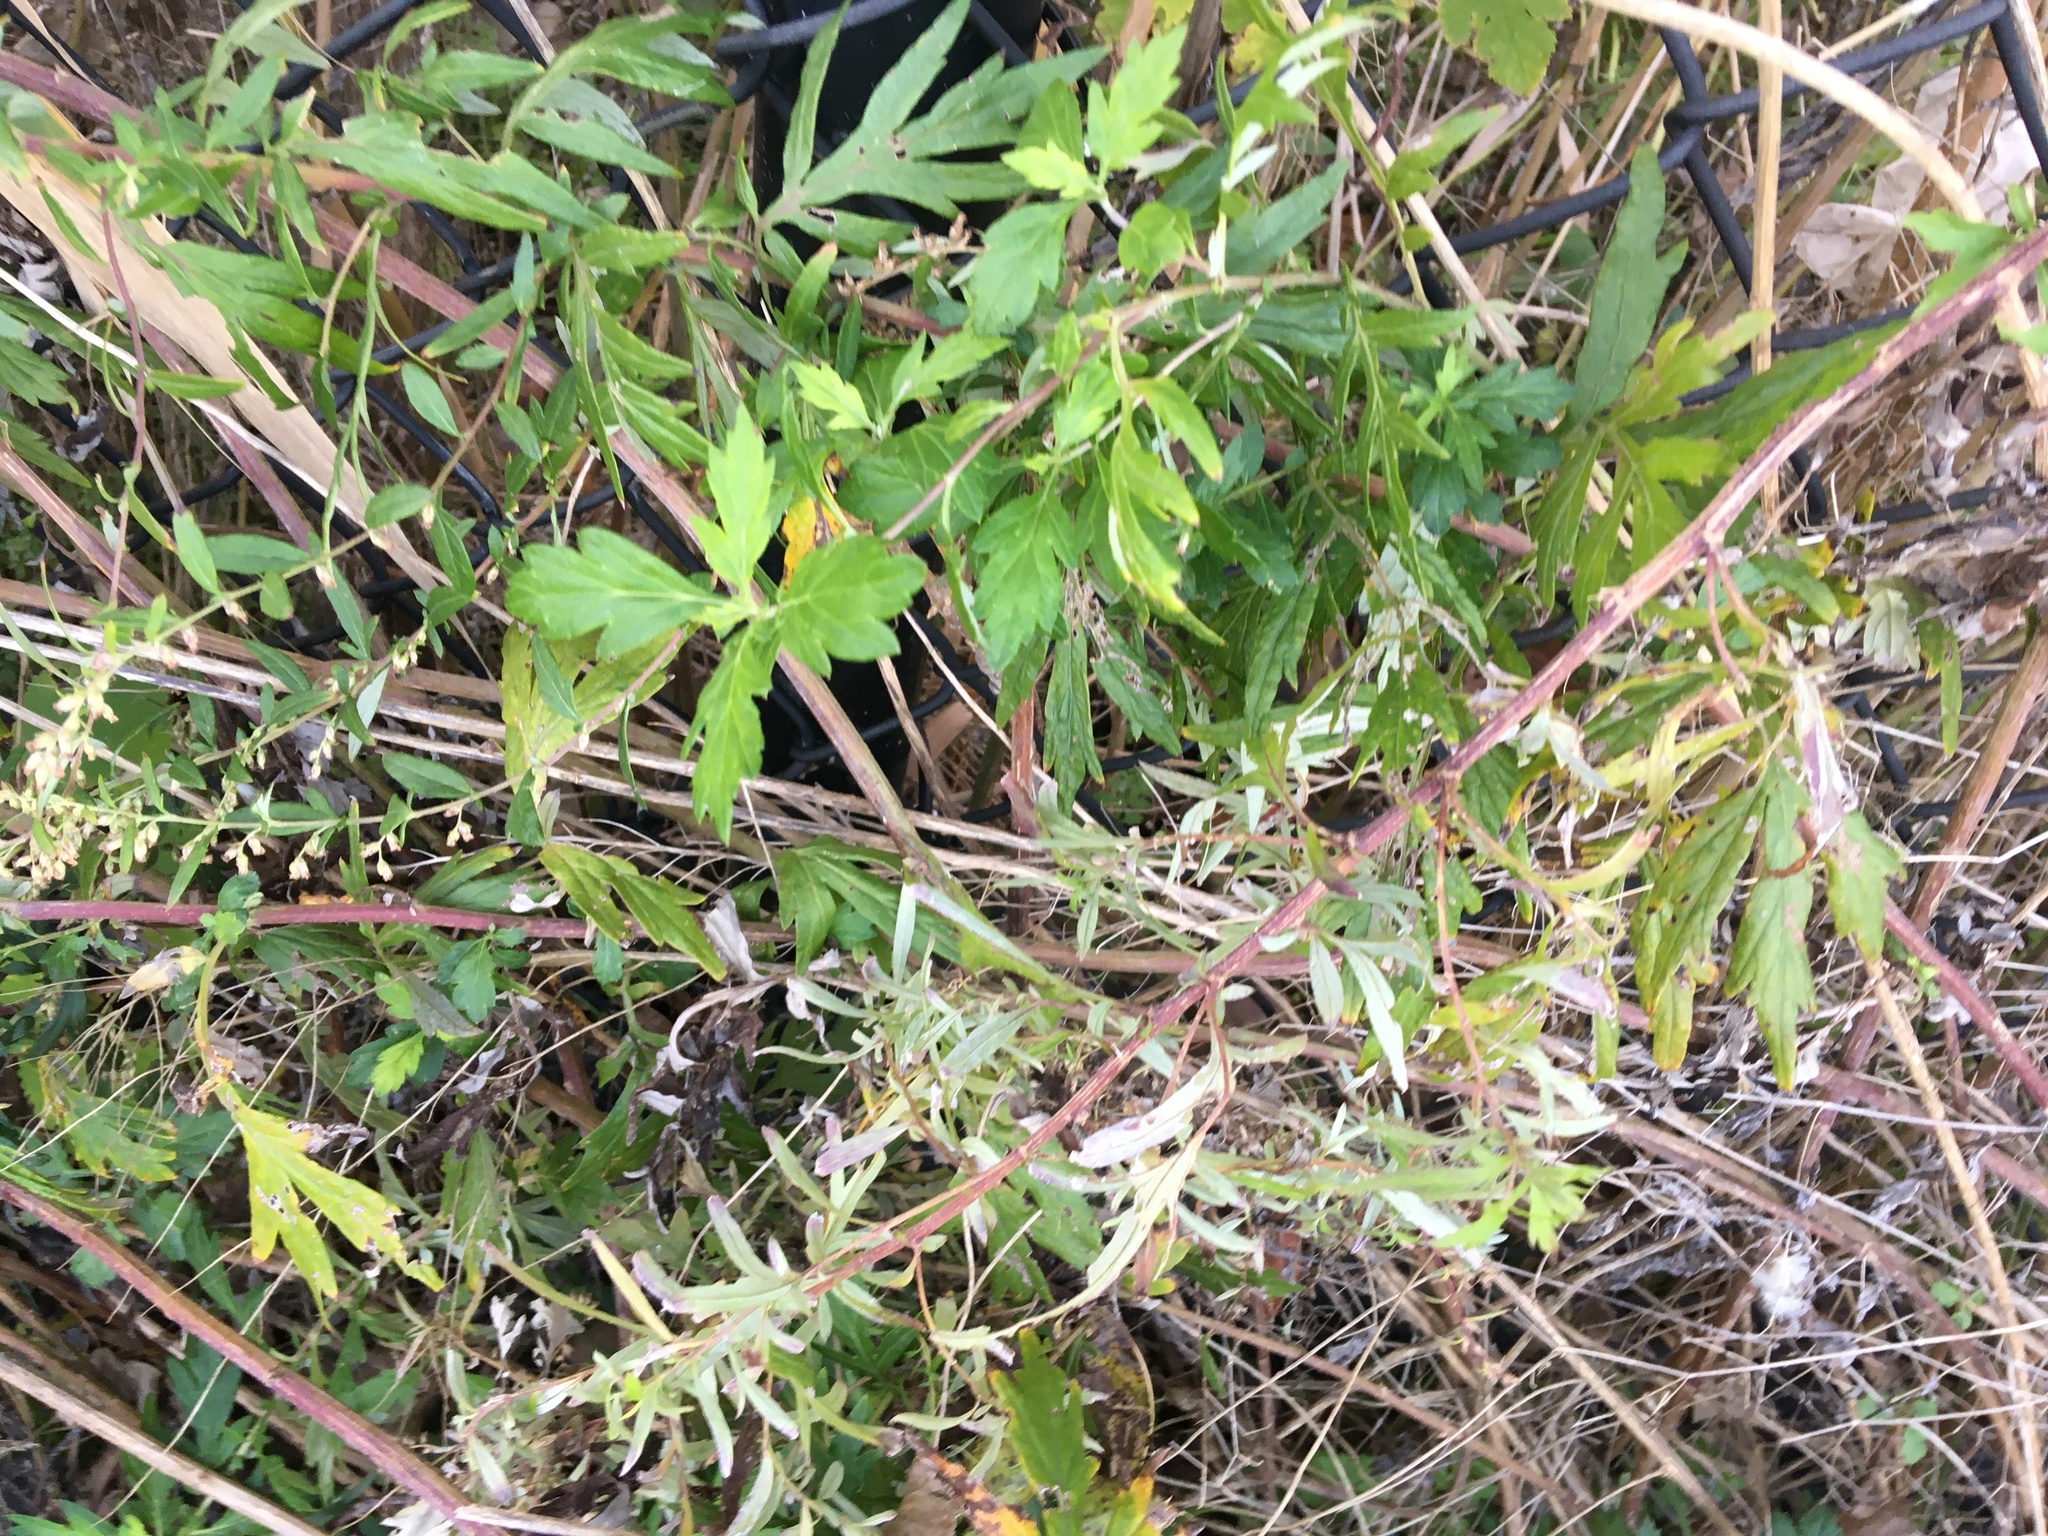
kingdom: Plantae
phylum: Tracheophyta
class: Magnoliopsida
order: Asterales
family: Asteraceae
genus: Artemisia
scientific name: Artemisia vulgaris
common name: Mugwort
